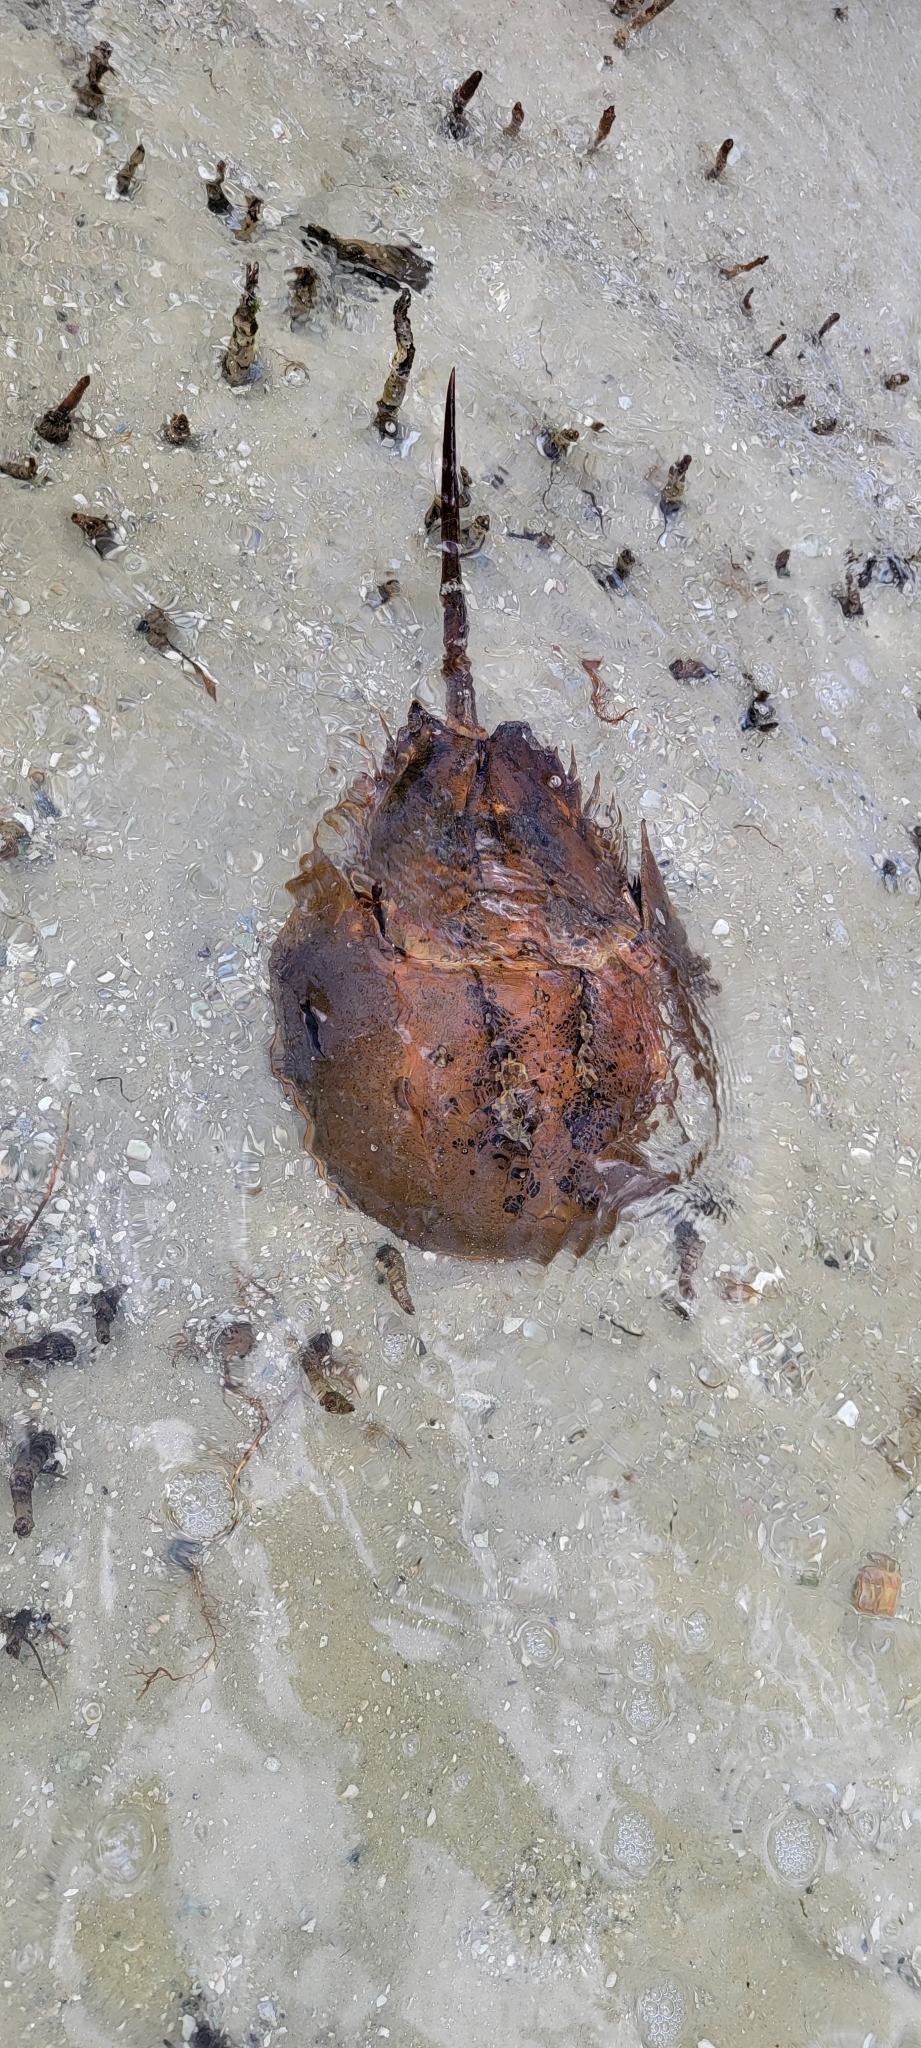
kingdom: Animalia
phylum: Arthropoda
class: Merostomata
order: Xiphosurida
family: Limulidae
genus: Limulus
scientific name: Limulus polyphemus
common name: Horseshoe crab
